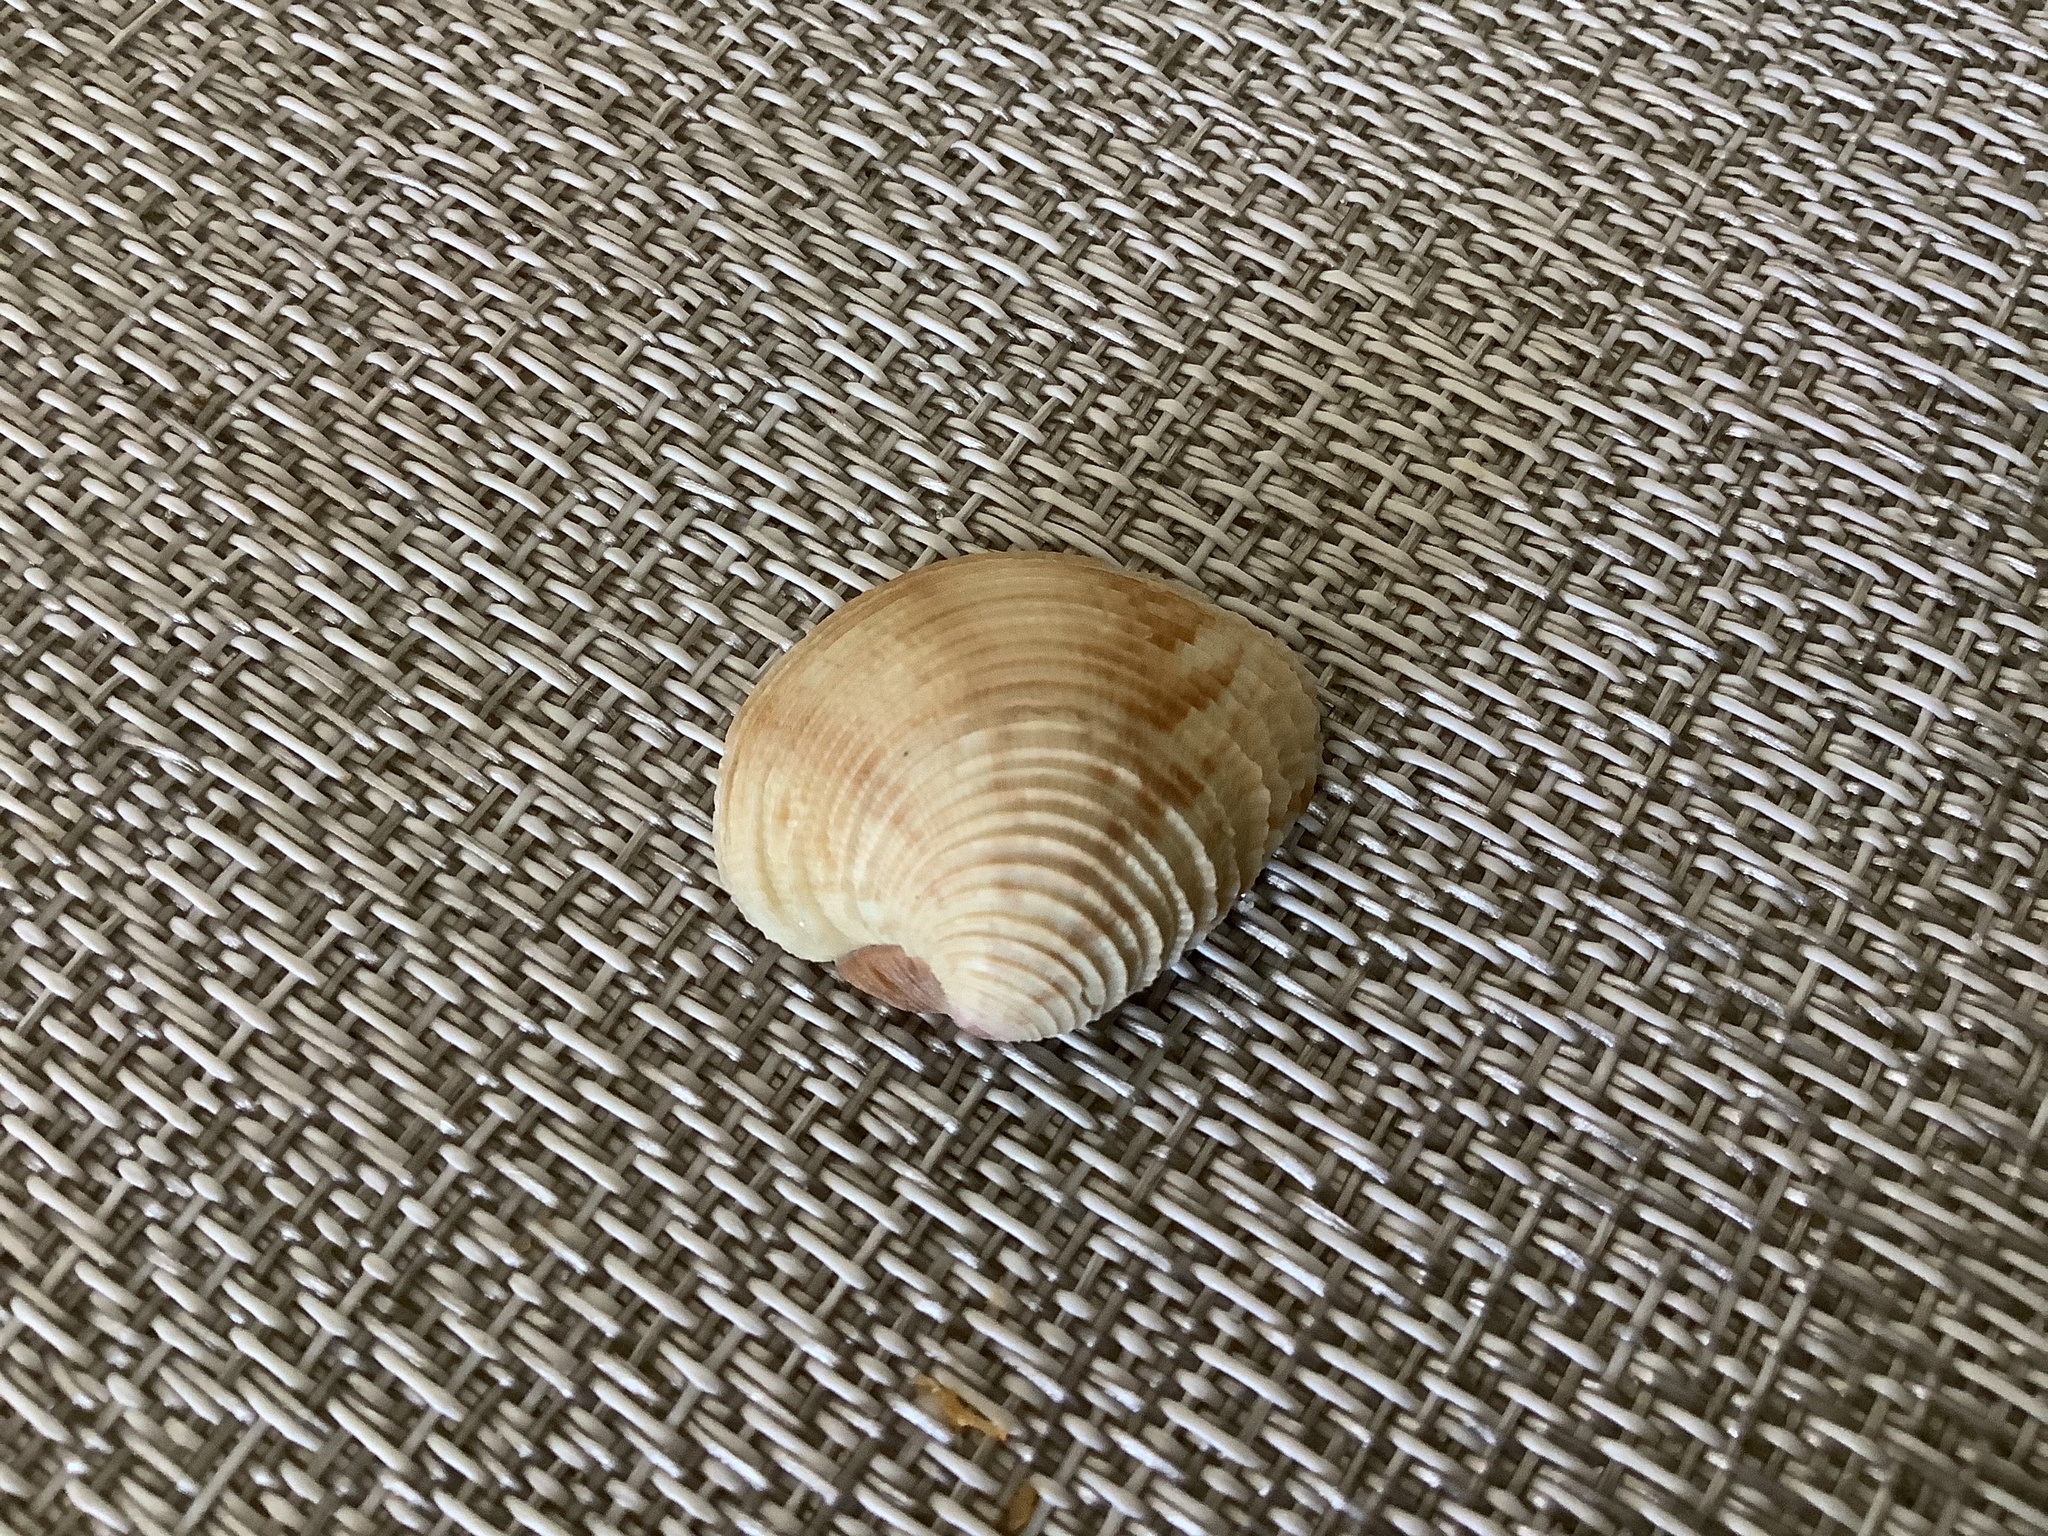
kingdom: Animalia
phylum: Mollusca
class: Bivalvia
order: Venerida
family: Veneridae
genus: Chionopsis
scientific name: Chionopsis intapurpurea
